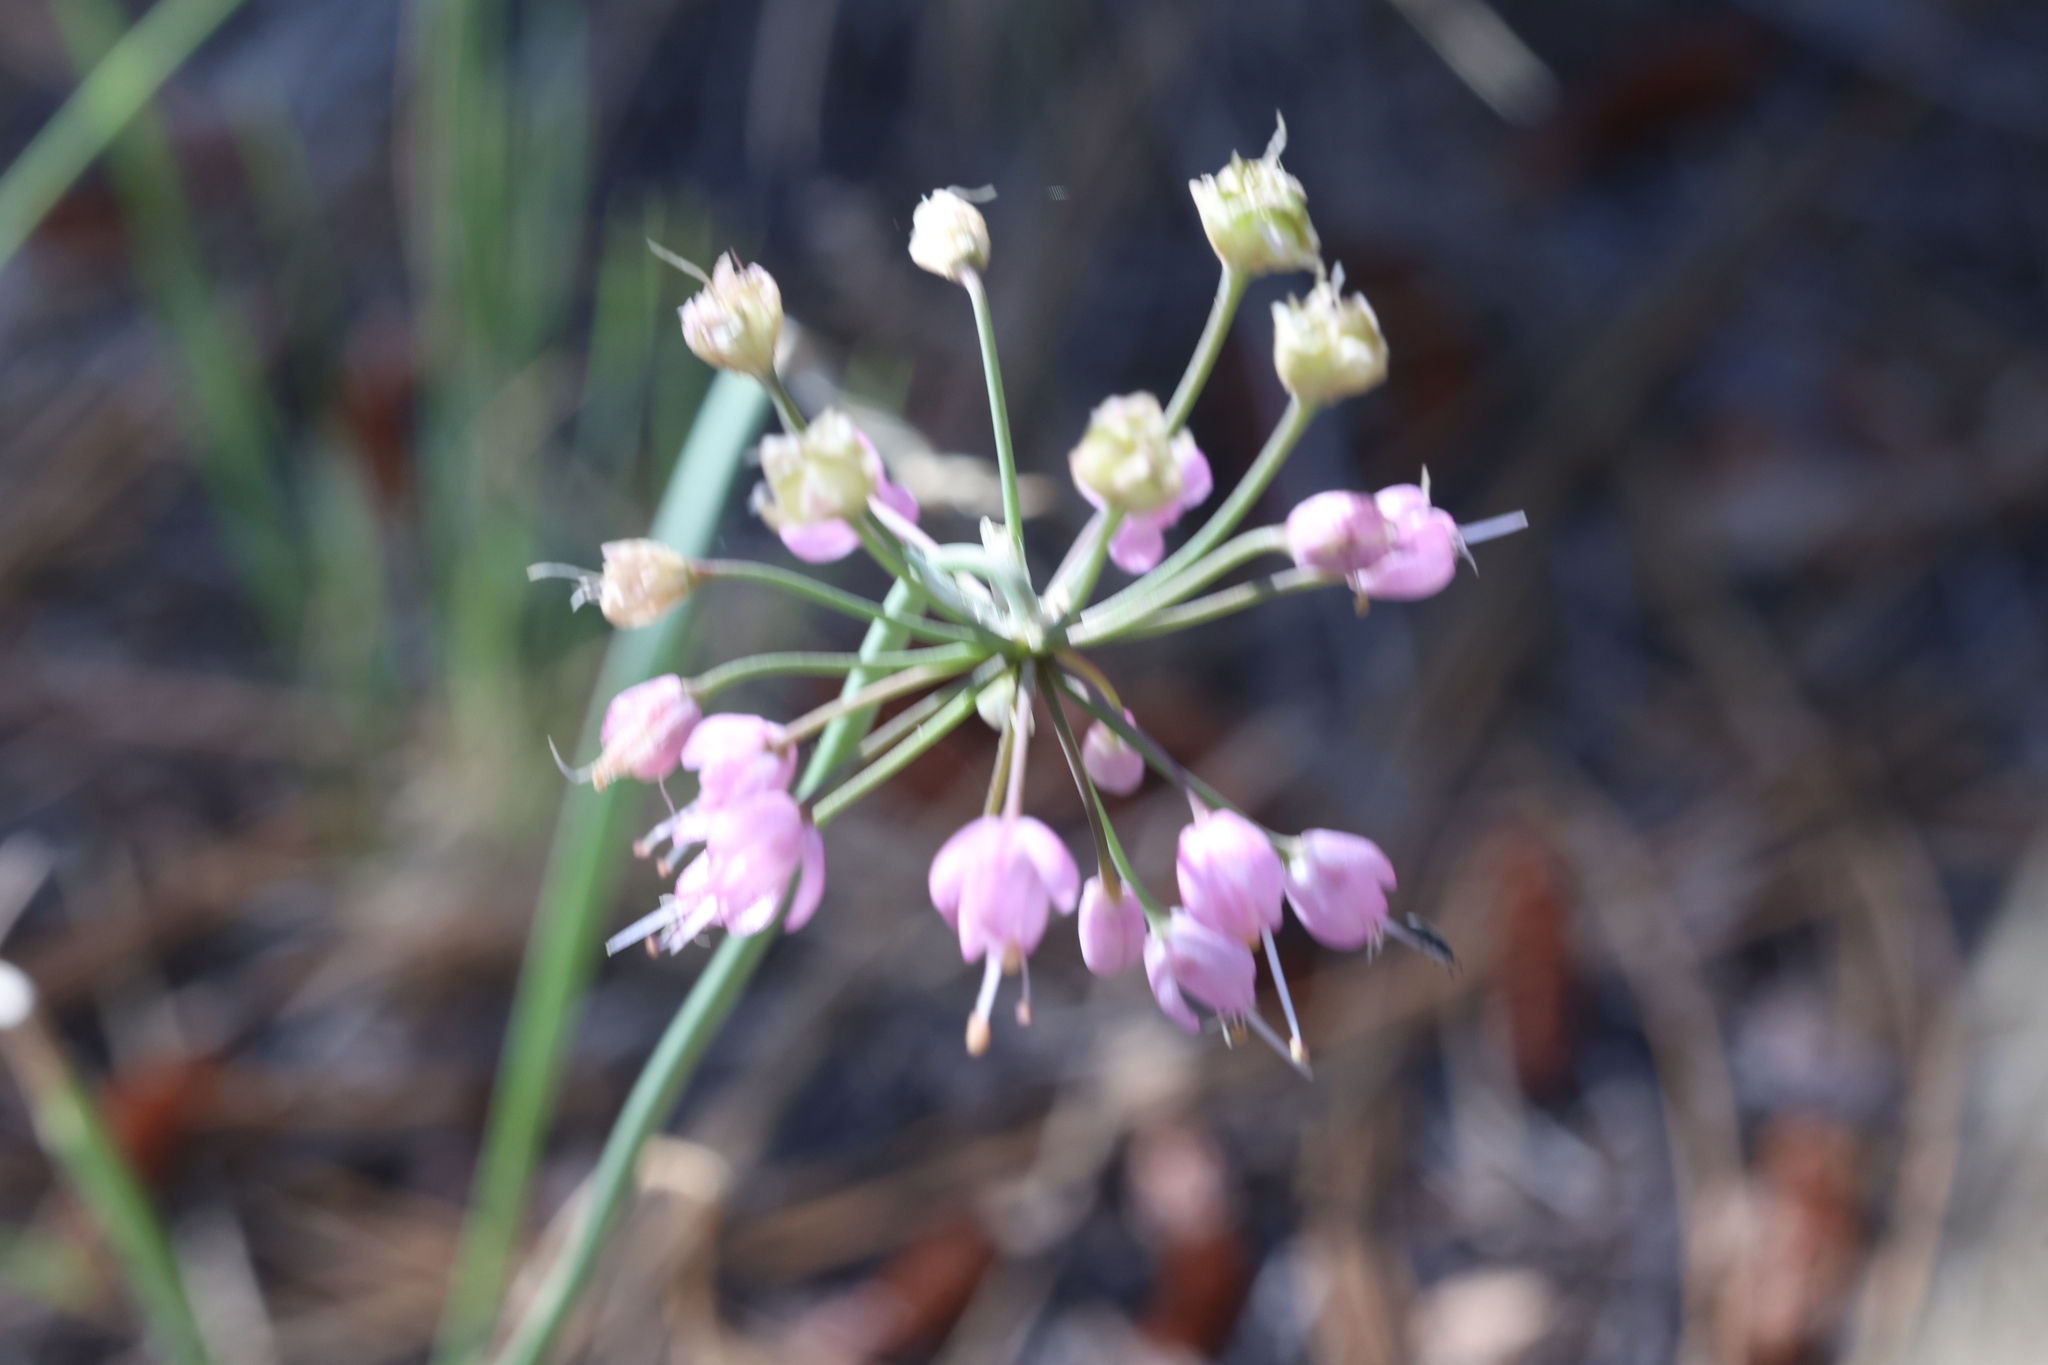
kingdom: Plantae
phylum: Tracheophyta
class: Liliopsida
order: Asparagales
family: Amaryllidaceae
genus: Allium
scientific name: Allium cernuum
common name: Nodding onion
